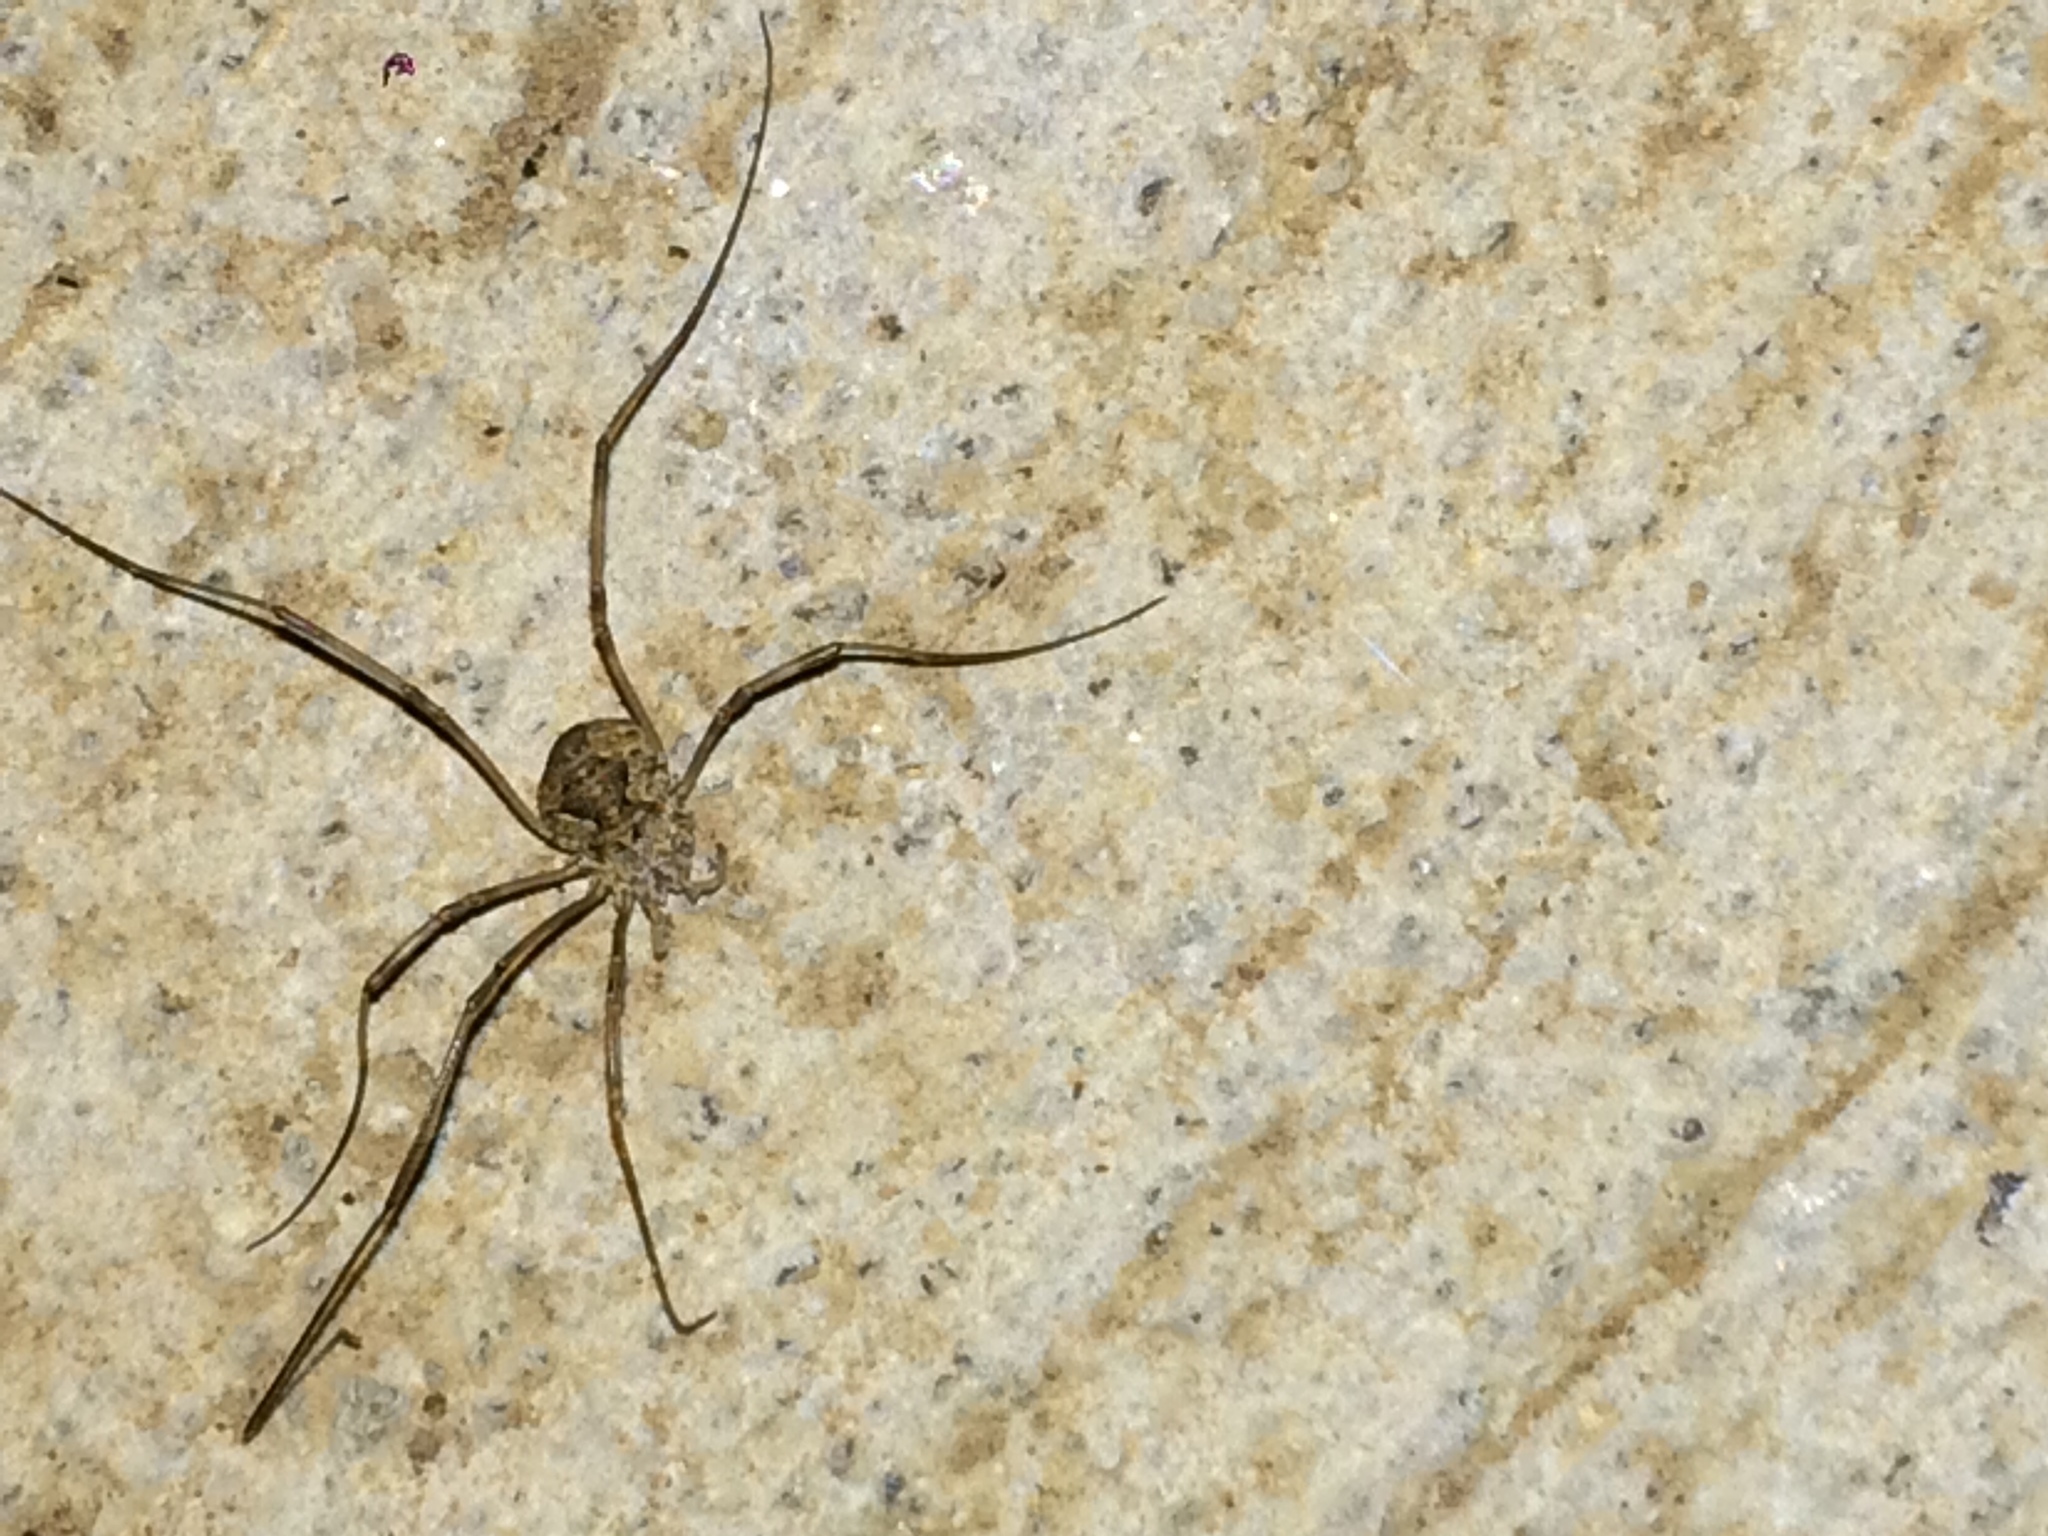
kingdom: Animalia
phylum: Arthropoda
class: Arachnida
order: Opiliones
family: Phalangiidae
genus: Phalangium
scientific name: Phalangium opilio
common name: Daddy longleg
